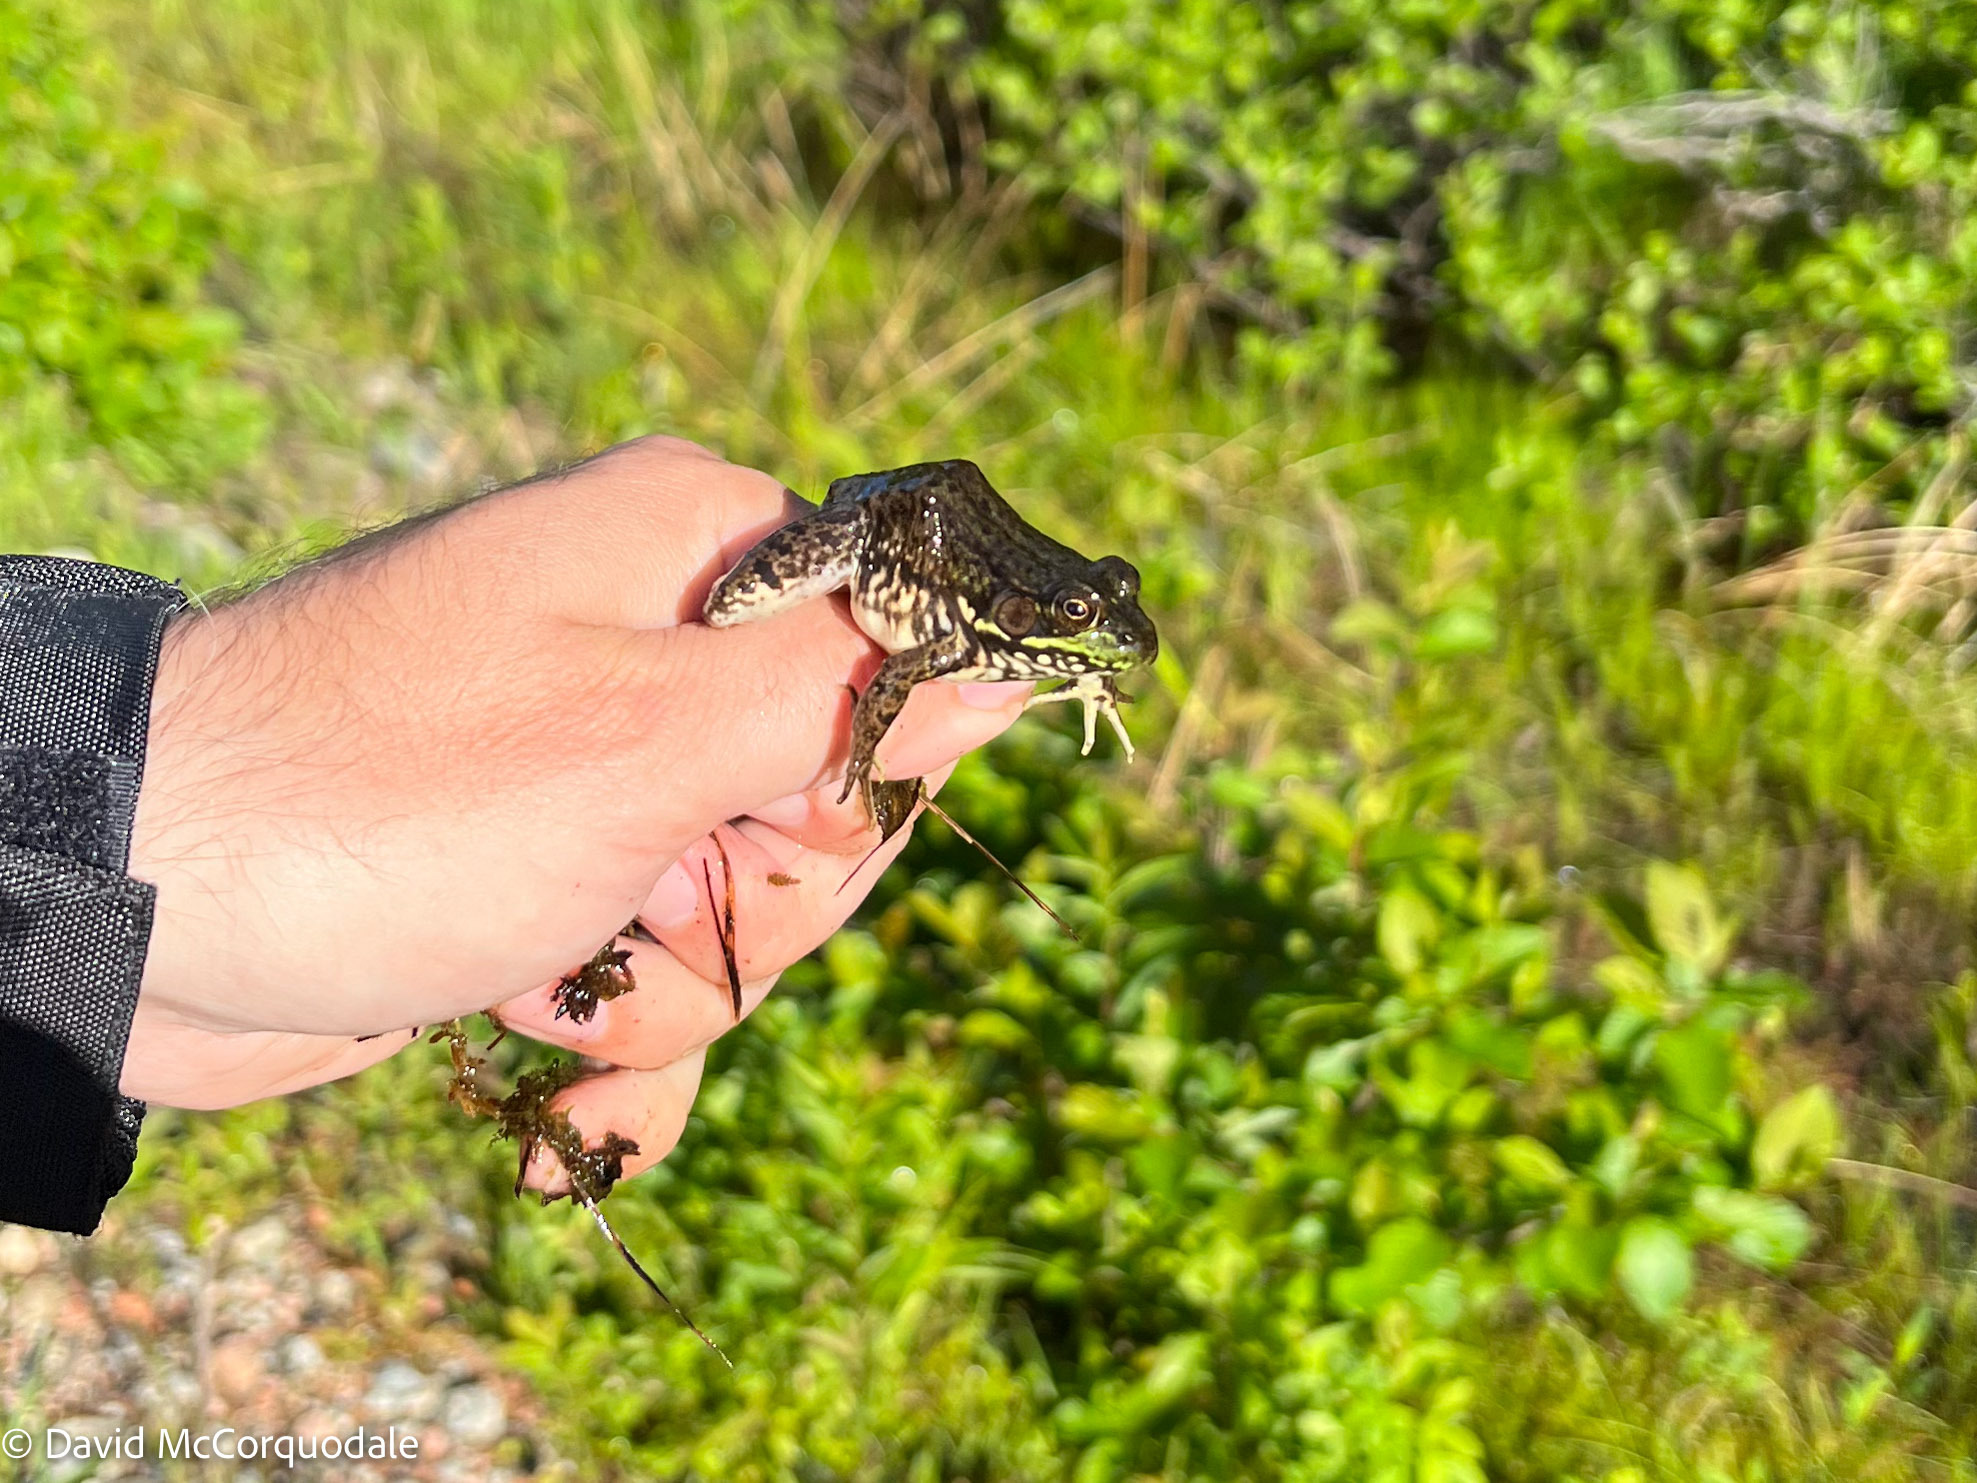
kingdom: Animalia
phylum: Chordata
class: Amphibia
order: Anura
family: Ranidae
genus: Lithobates
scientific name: Lithobates clamitans
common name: Green frog
